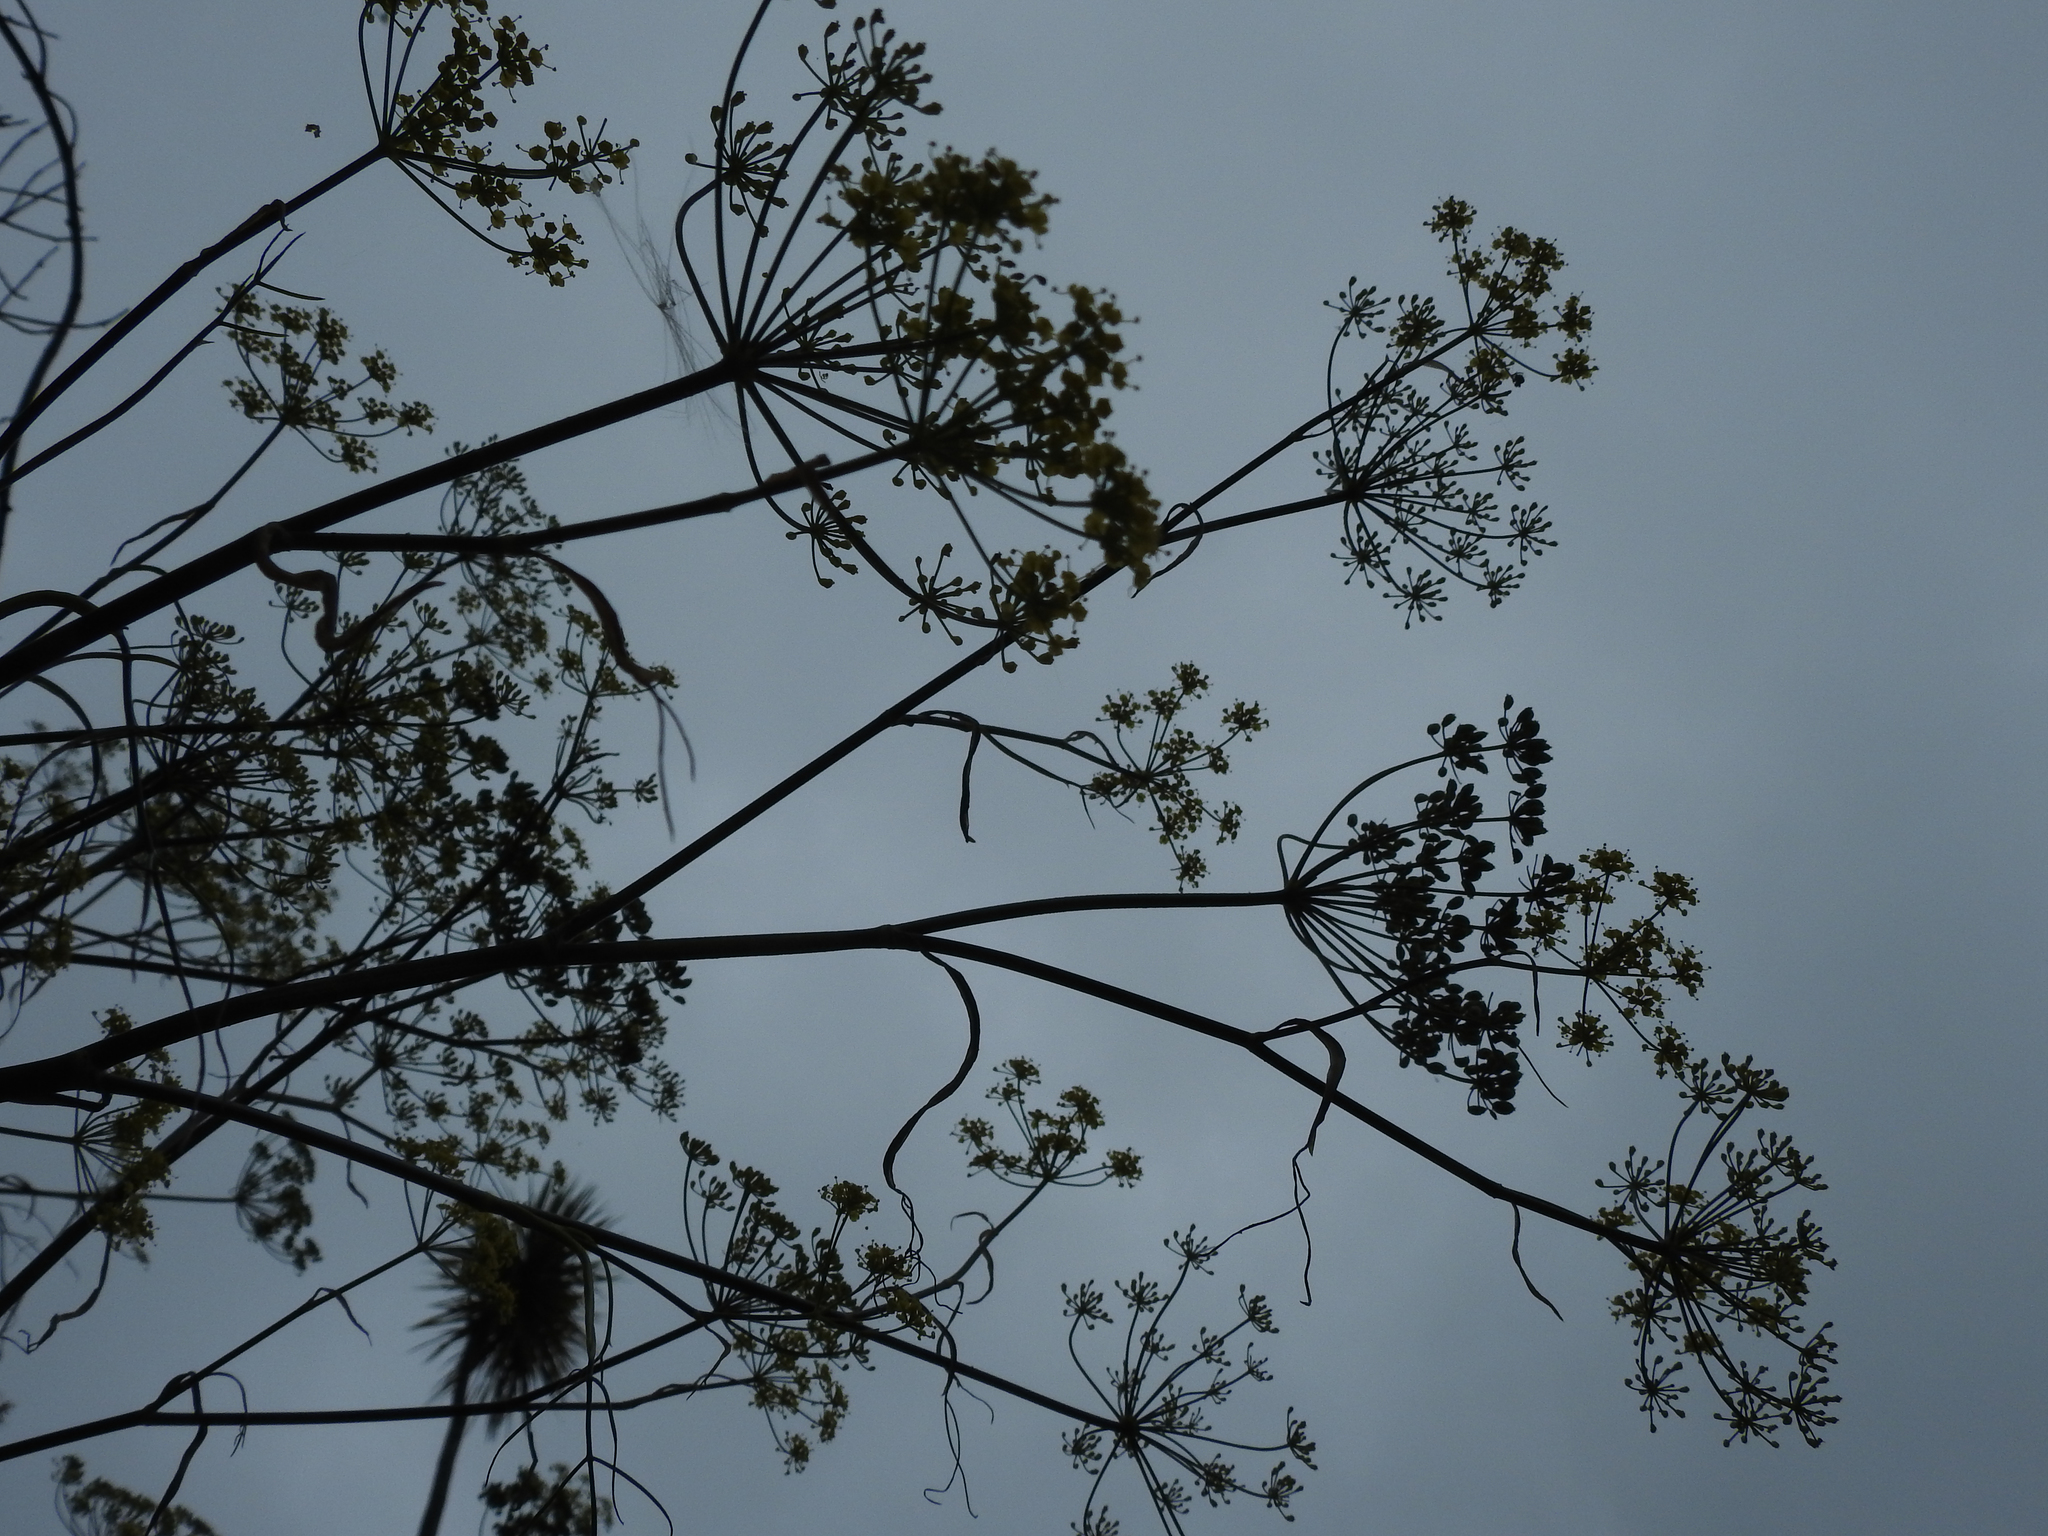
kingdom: Plantae
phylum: Tracheophyta
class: Magnoliopsida
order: Gentianales
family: Rubiaceae
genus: Coprosma
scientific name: Coprosma lucida
